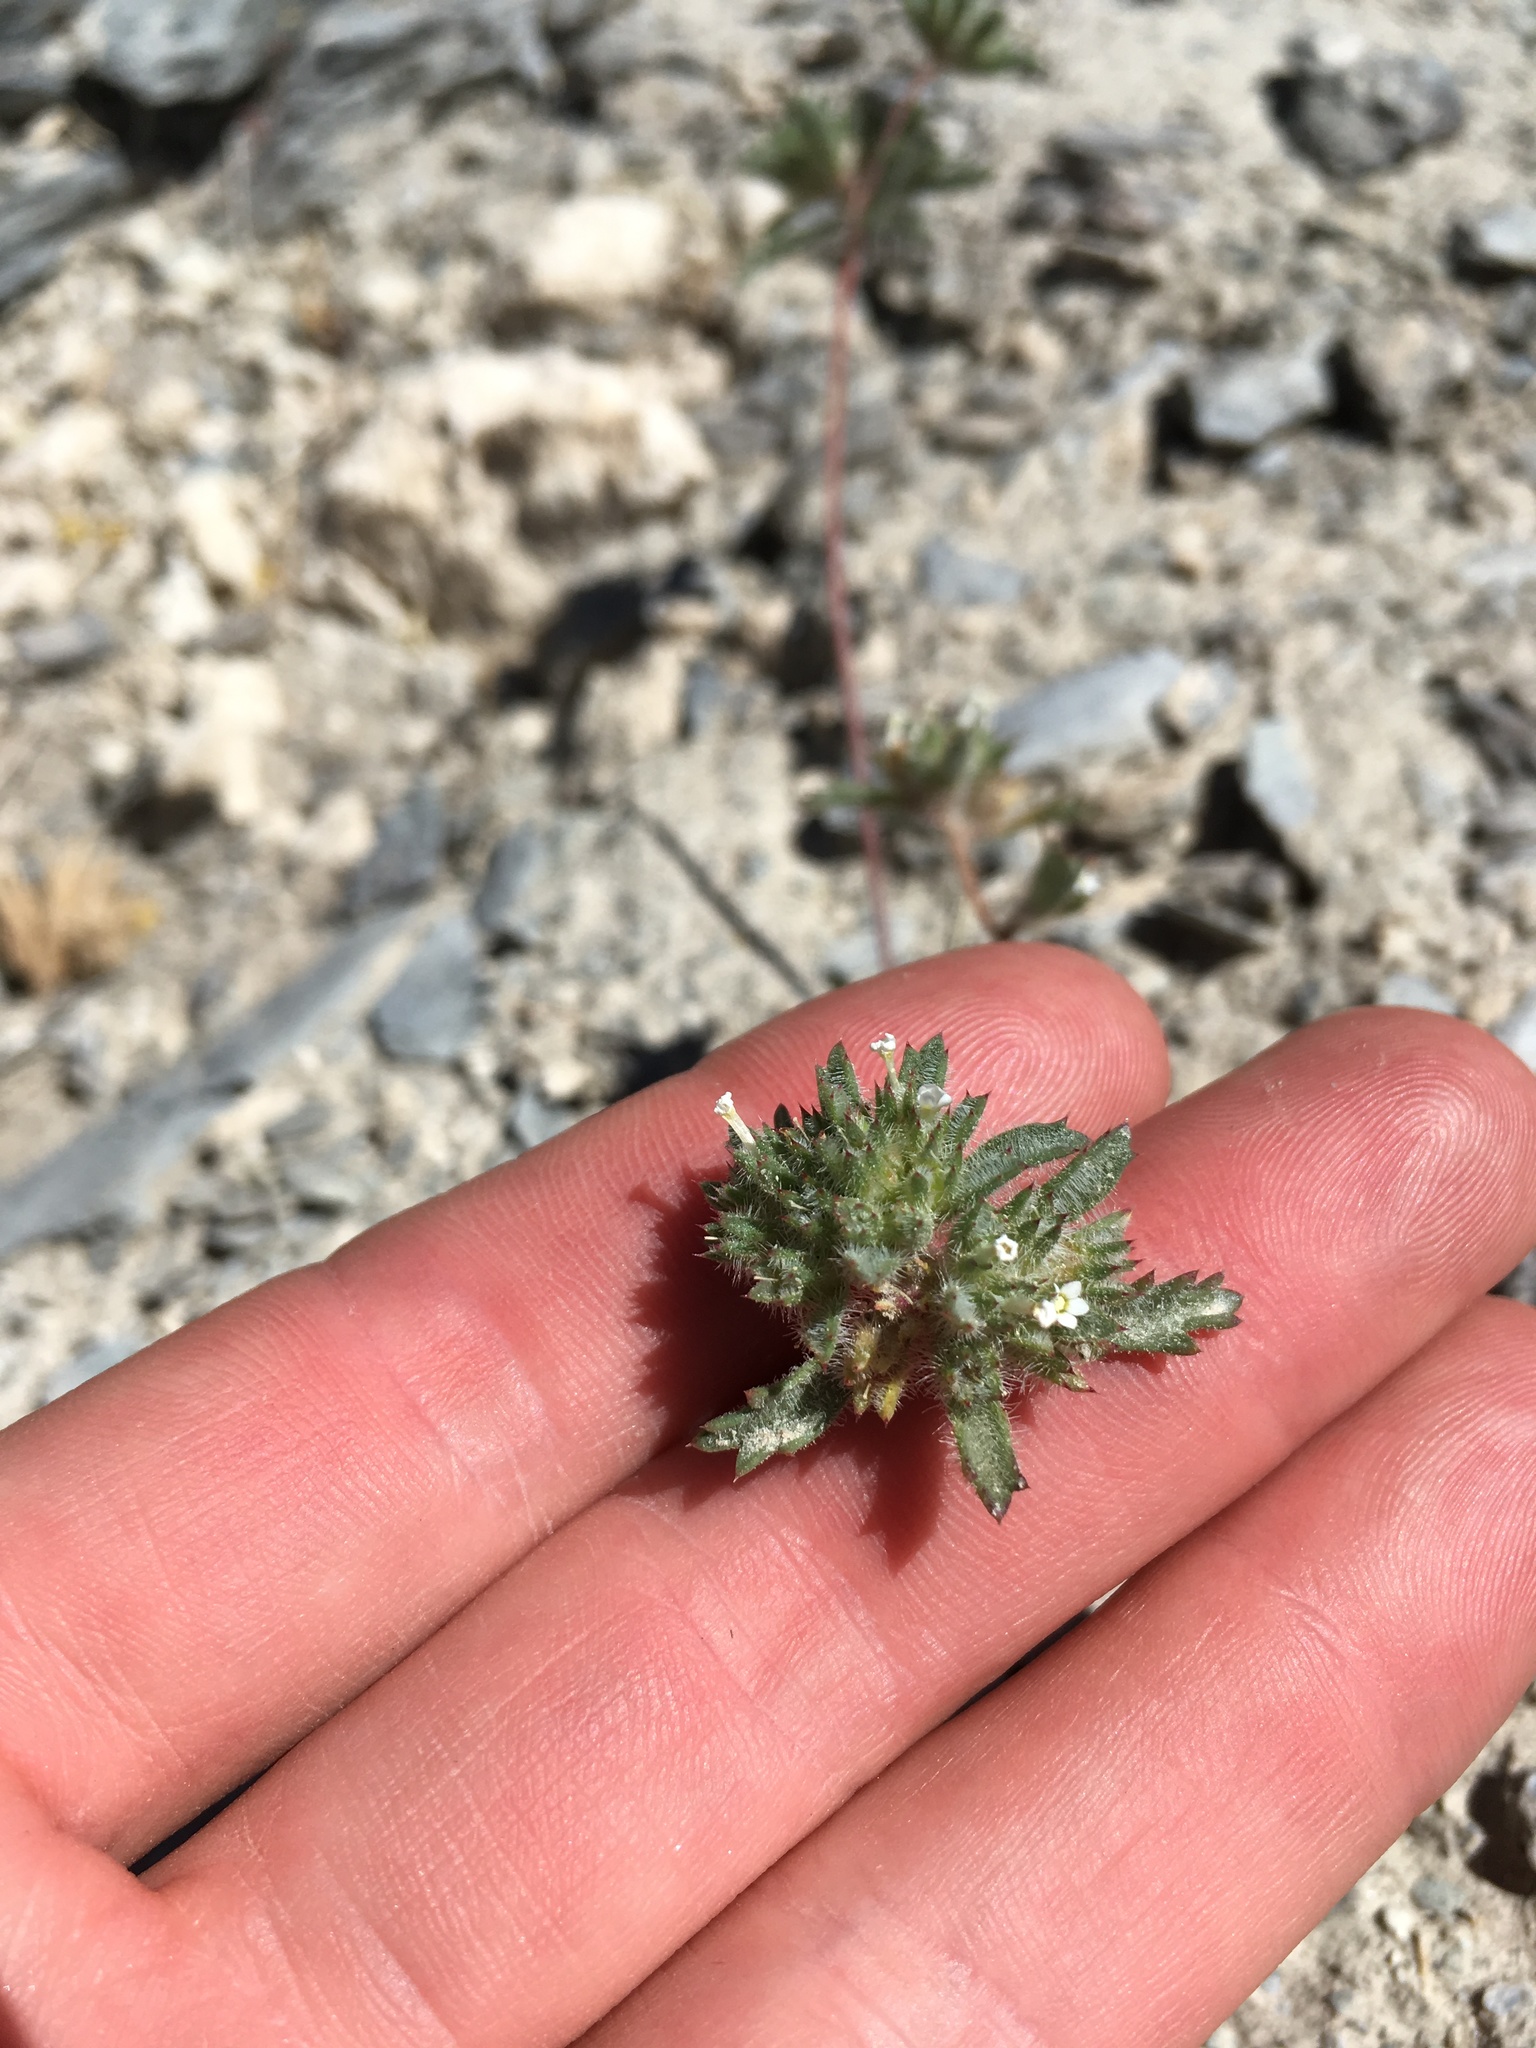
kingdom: Plantae
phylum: Tracheophyta
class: Magnoliopsida
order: Ericales
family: Polemoniaceae
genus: Ipomopsis
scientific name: Ipomopsis polycladon
